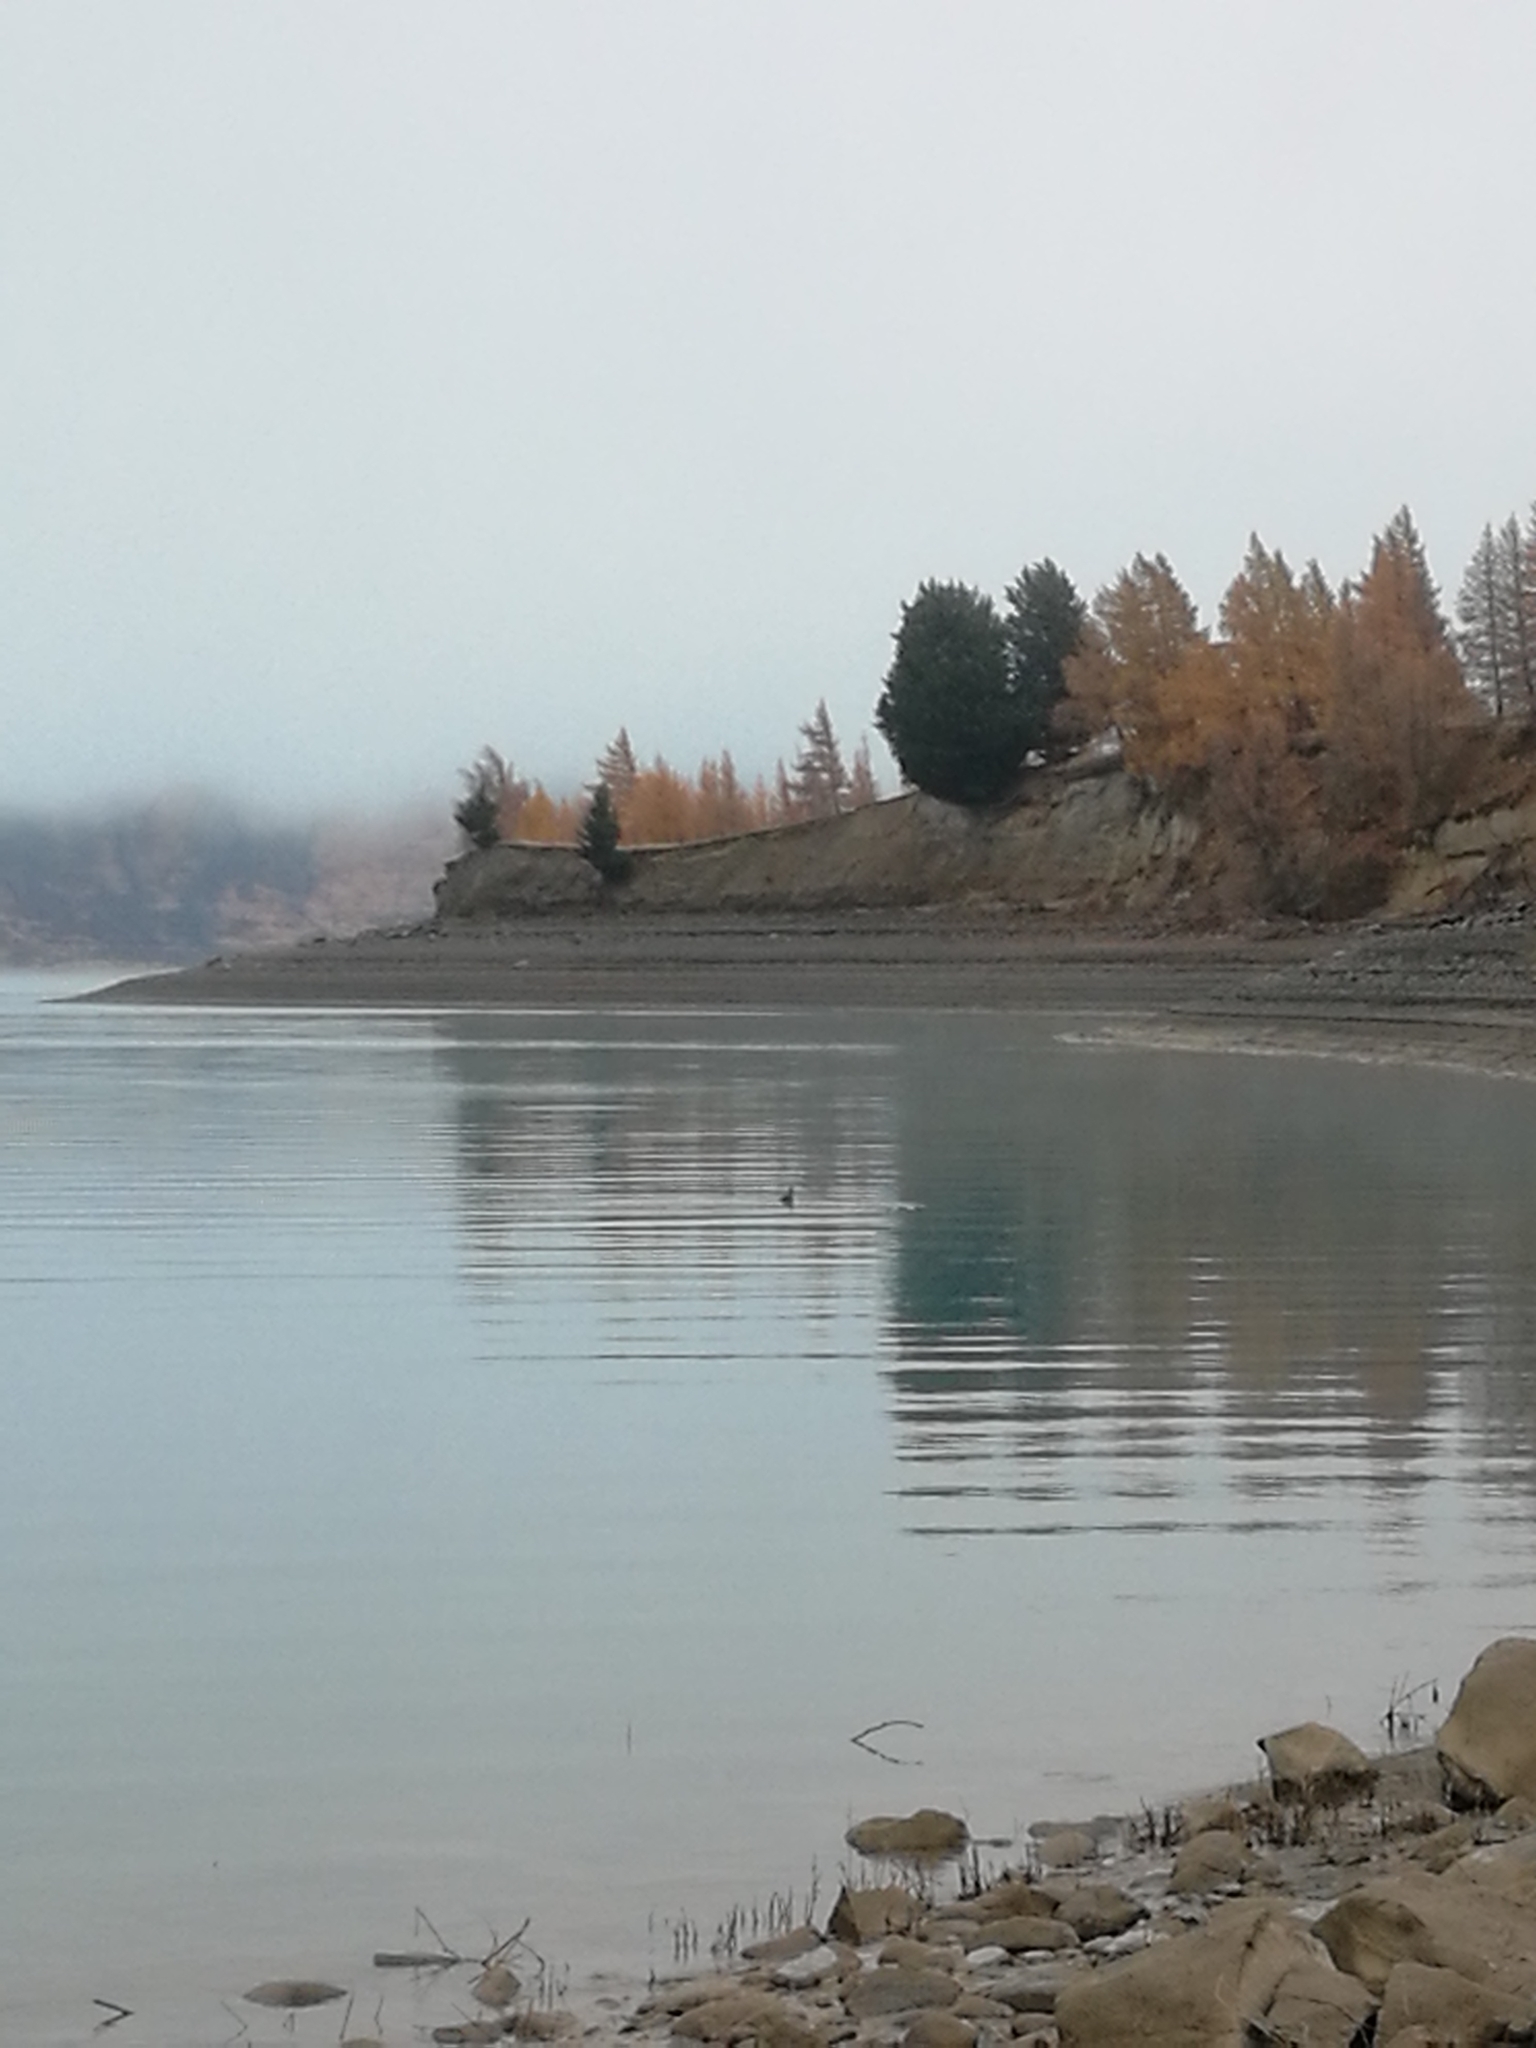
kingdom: Plantae
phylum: Tracheophyta
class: Pinopsida
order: Pinales
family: Pinaceae
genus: Larix
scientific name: Larix decidua
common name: European larch
